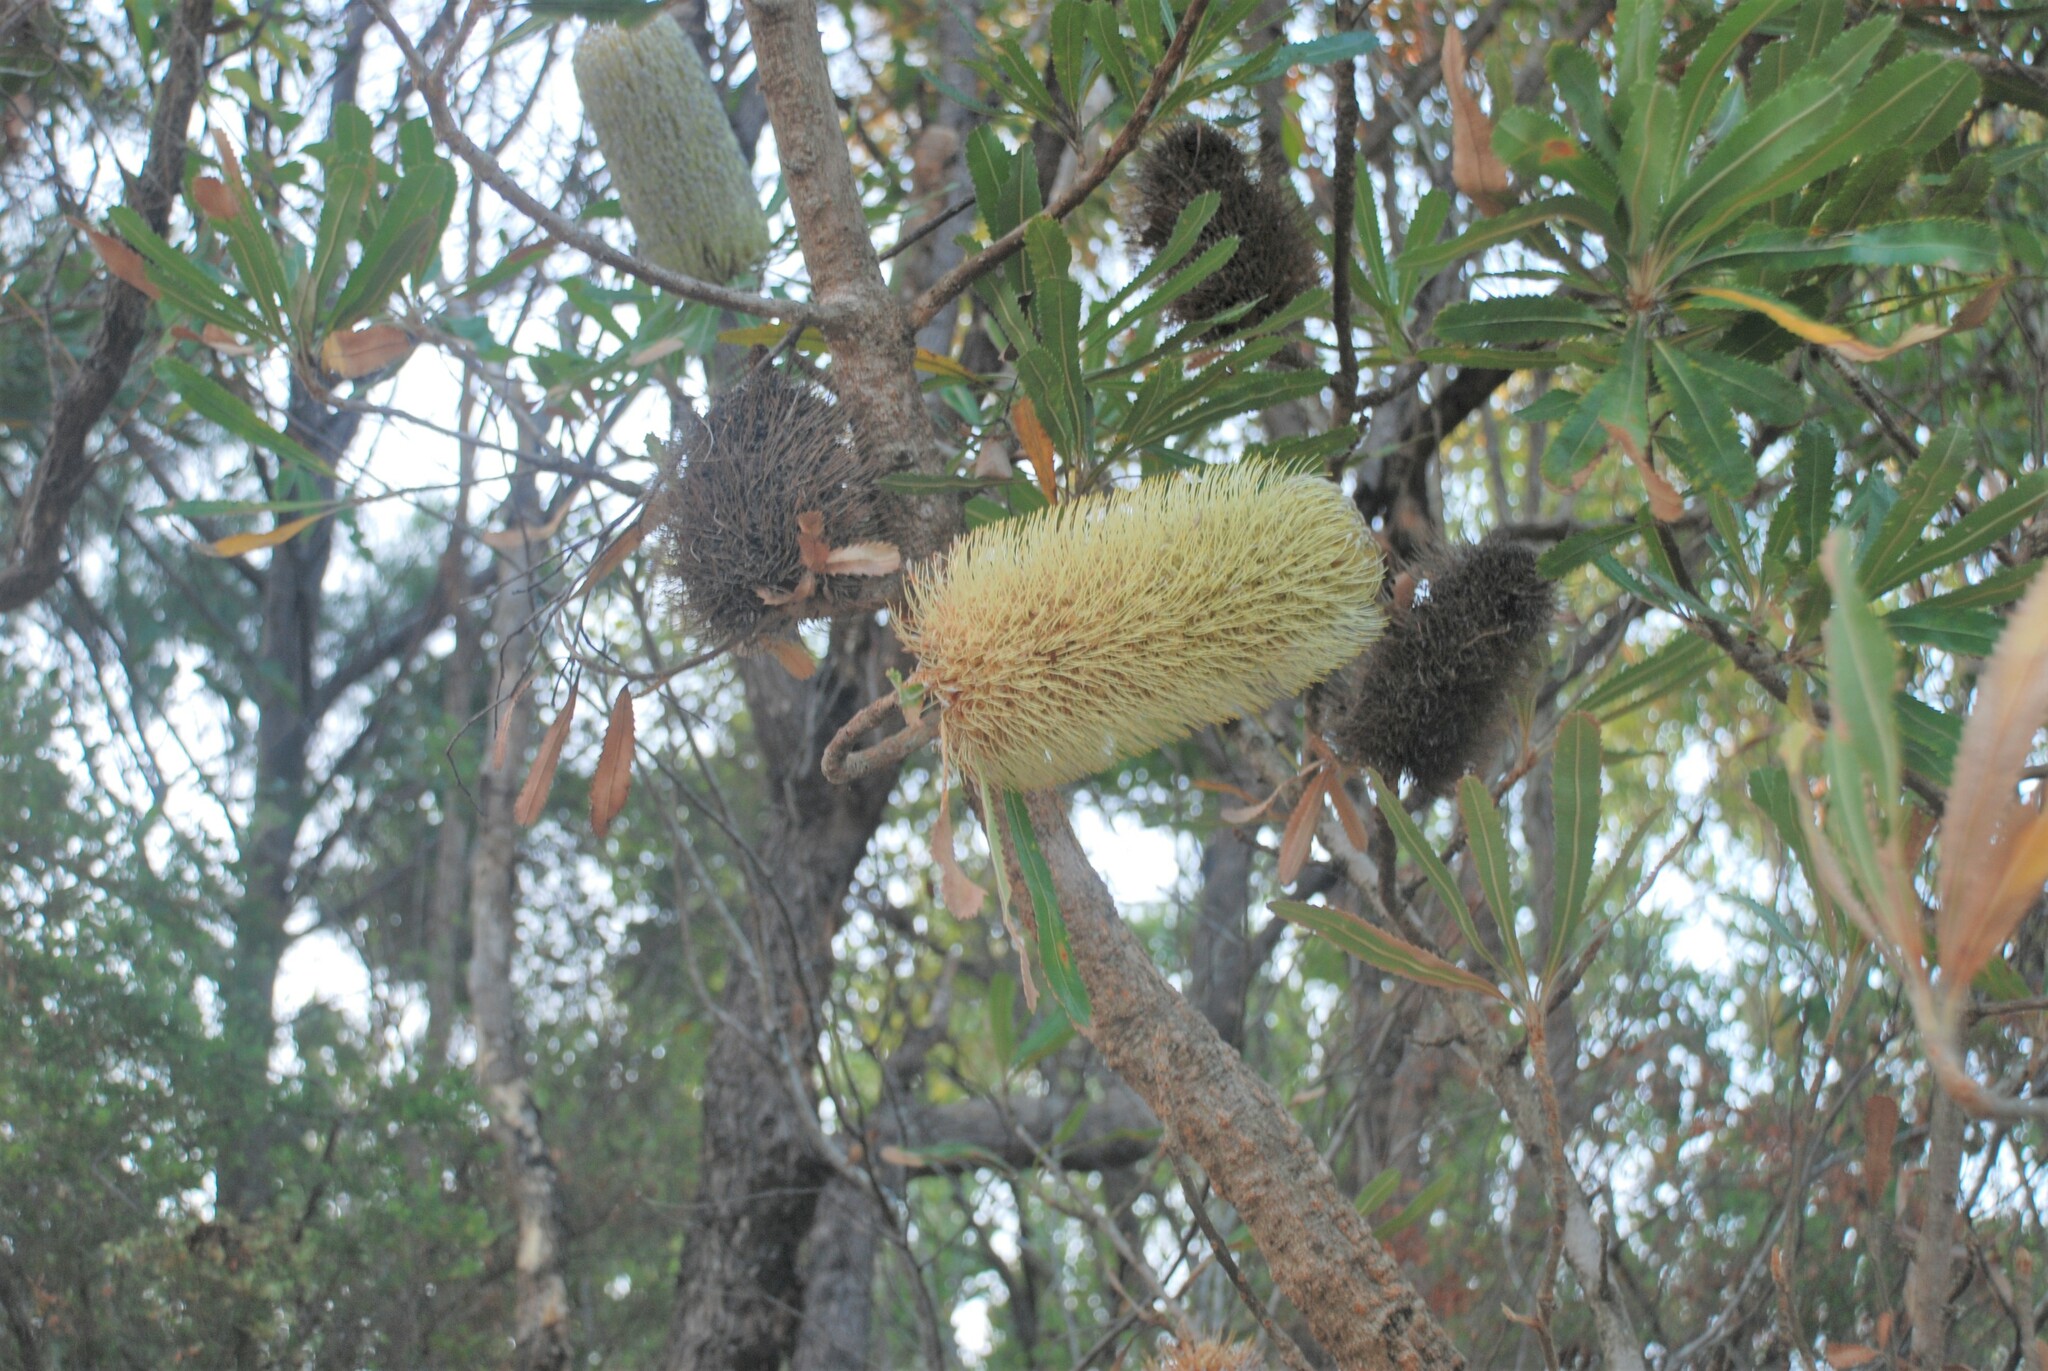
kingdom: Plantae
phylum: Tracheophyta
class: Magnoliopsida
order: Proteales
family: Proteaceae
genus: Banksia
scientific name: Banksia aemula
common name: Wallum banksia
